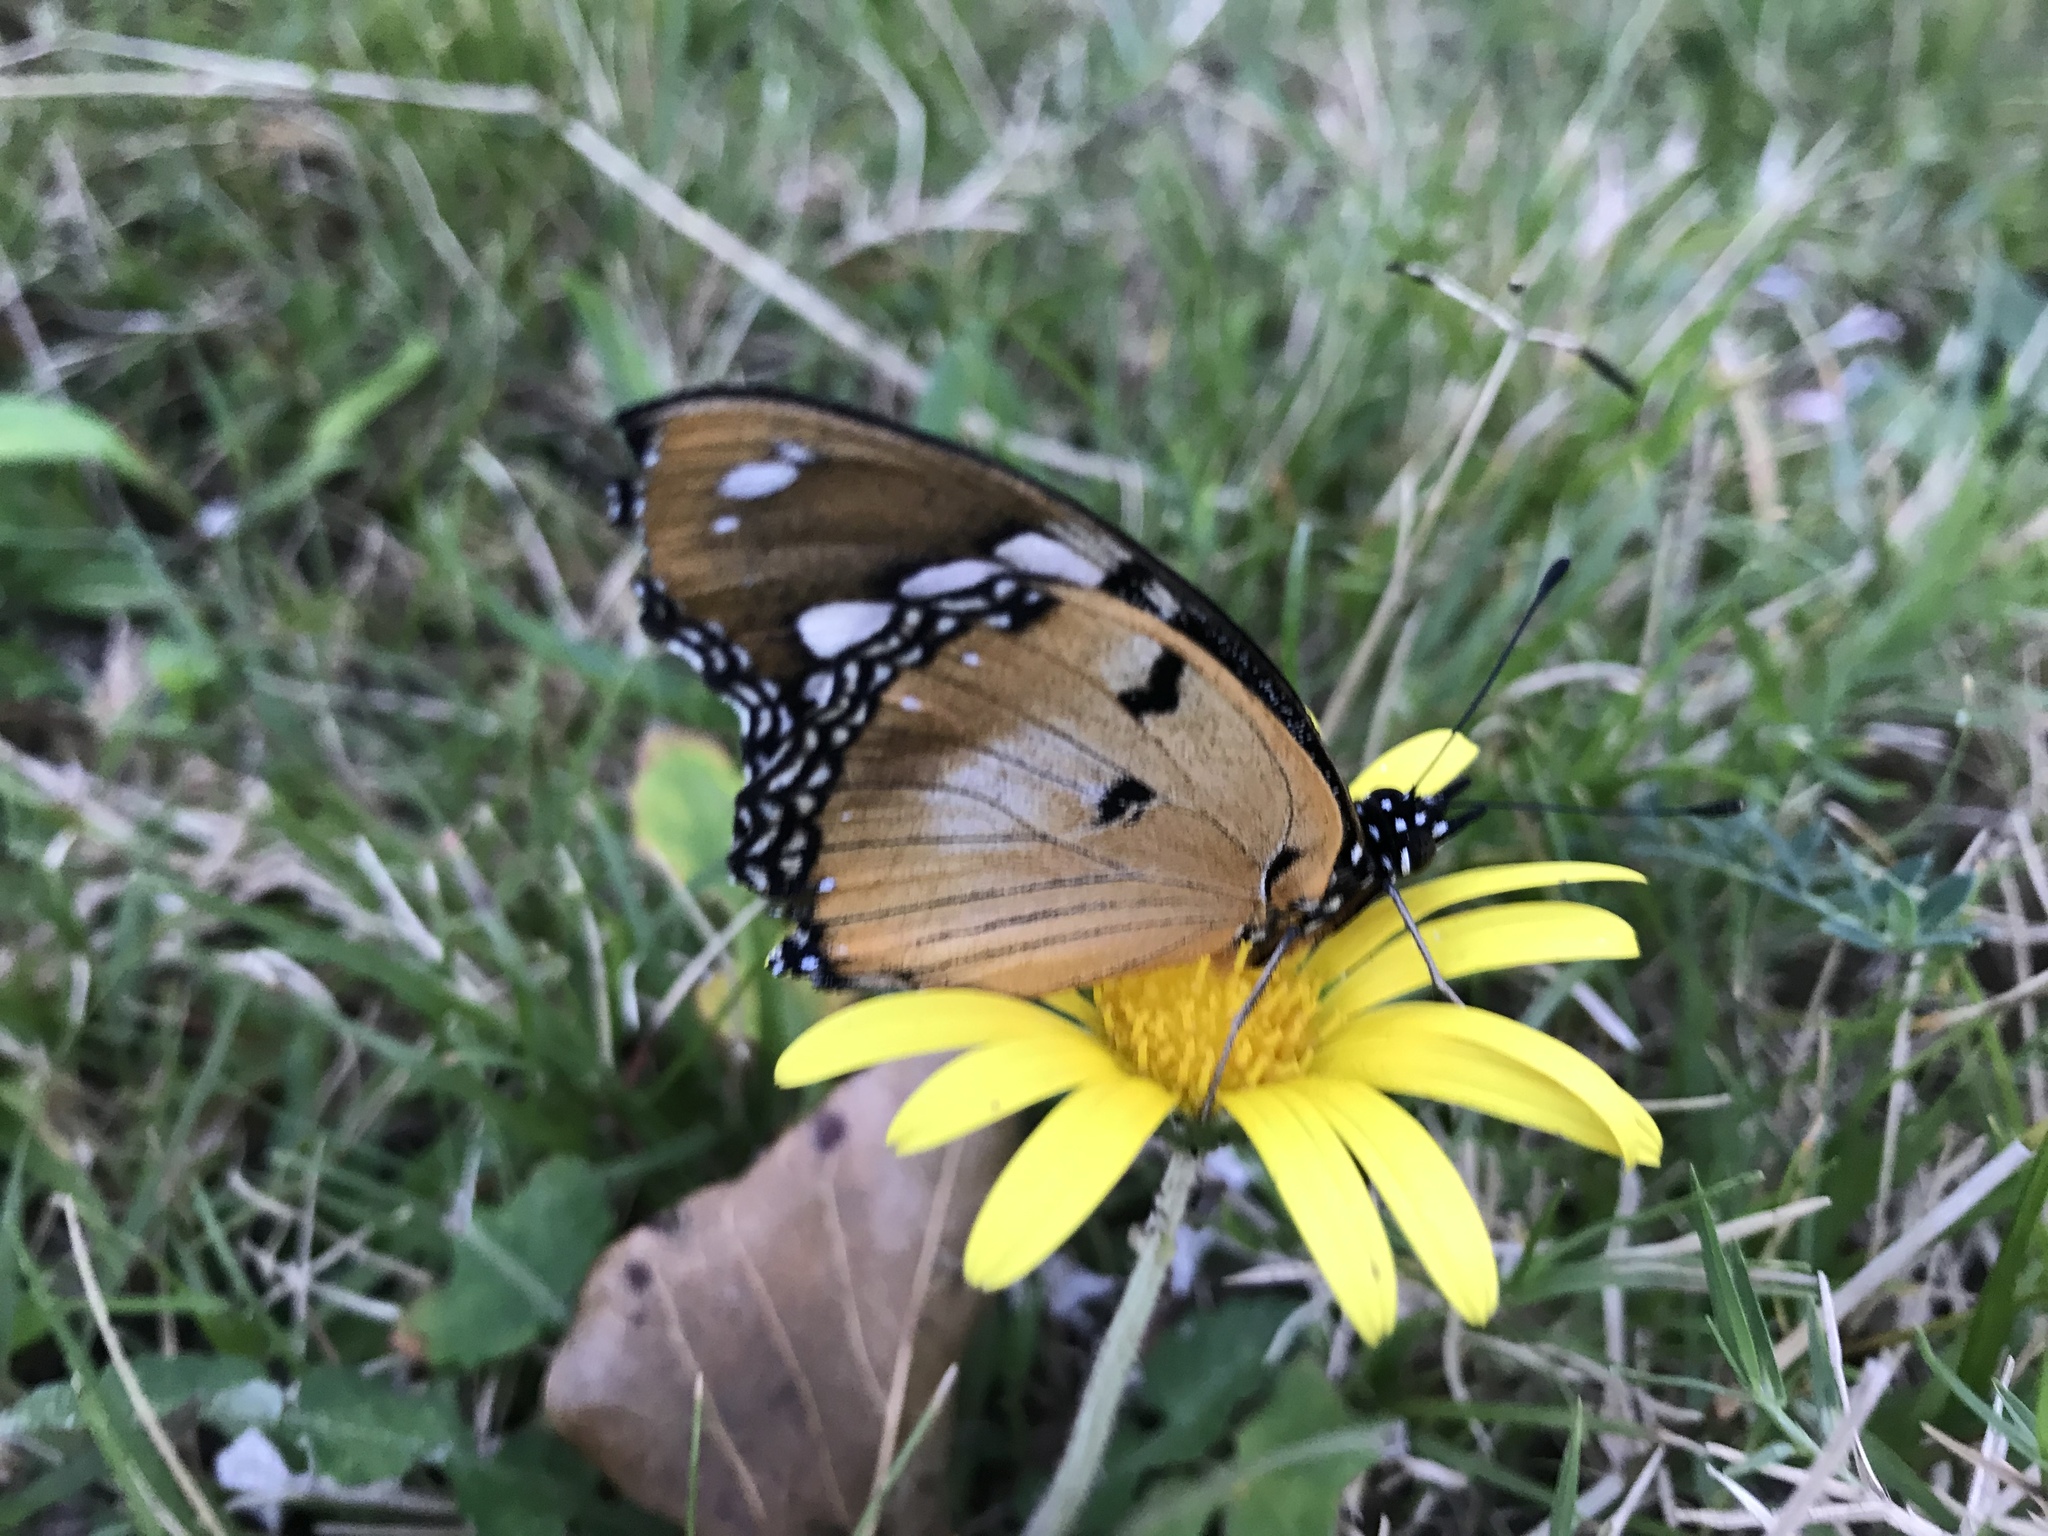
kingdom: Animalia
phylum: Arthropoda
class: Insecta
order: Lepidoptera
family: Nymphalidae
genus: Hypolimnas
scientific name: Hypolimnas misippus
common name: False plain tiger
